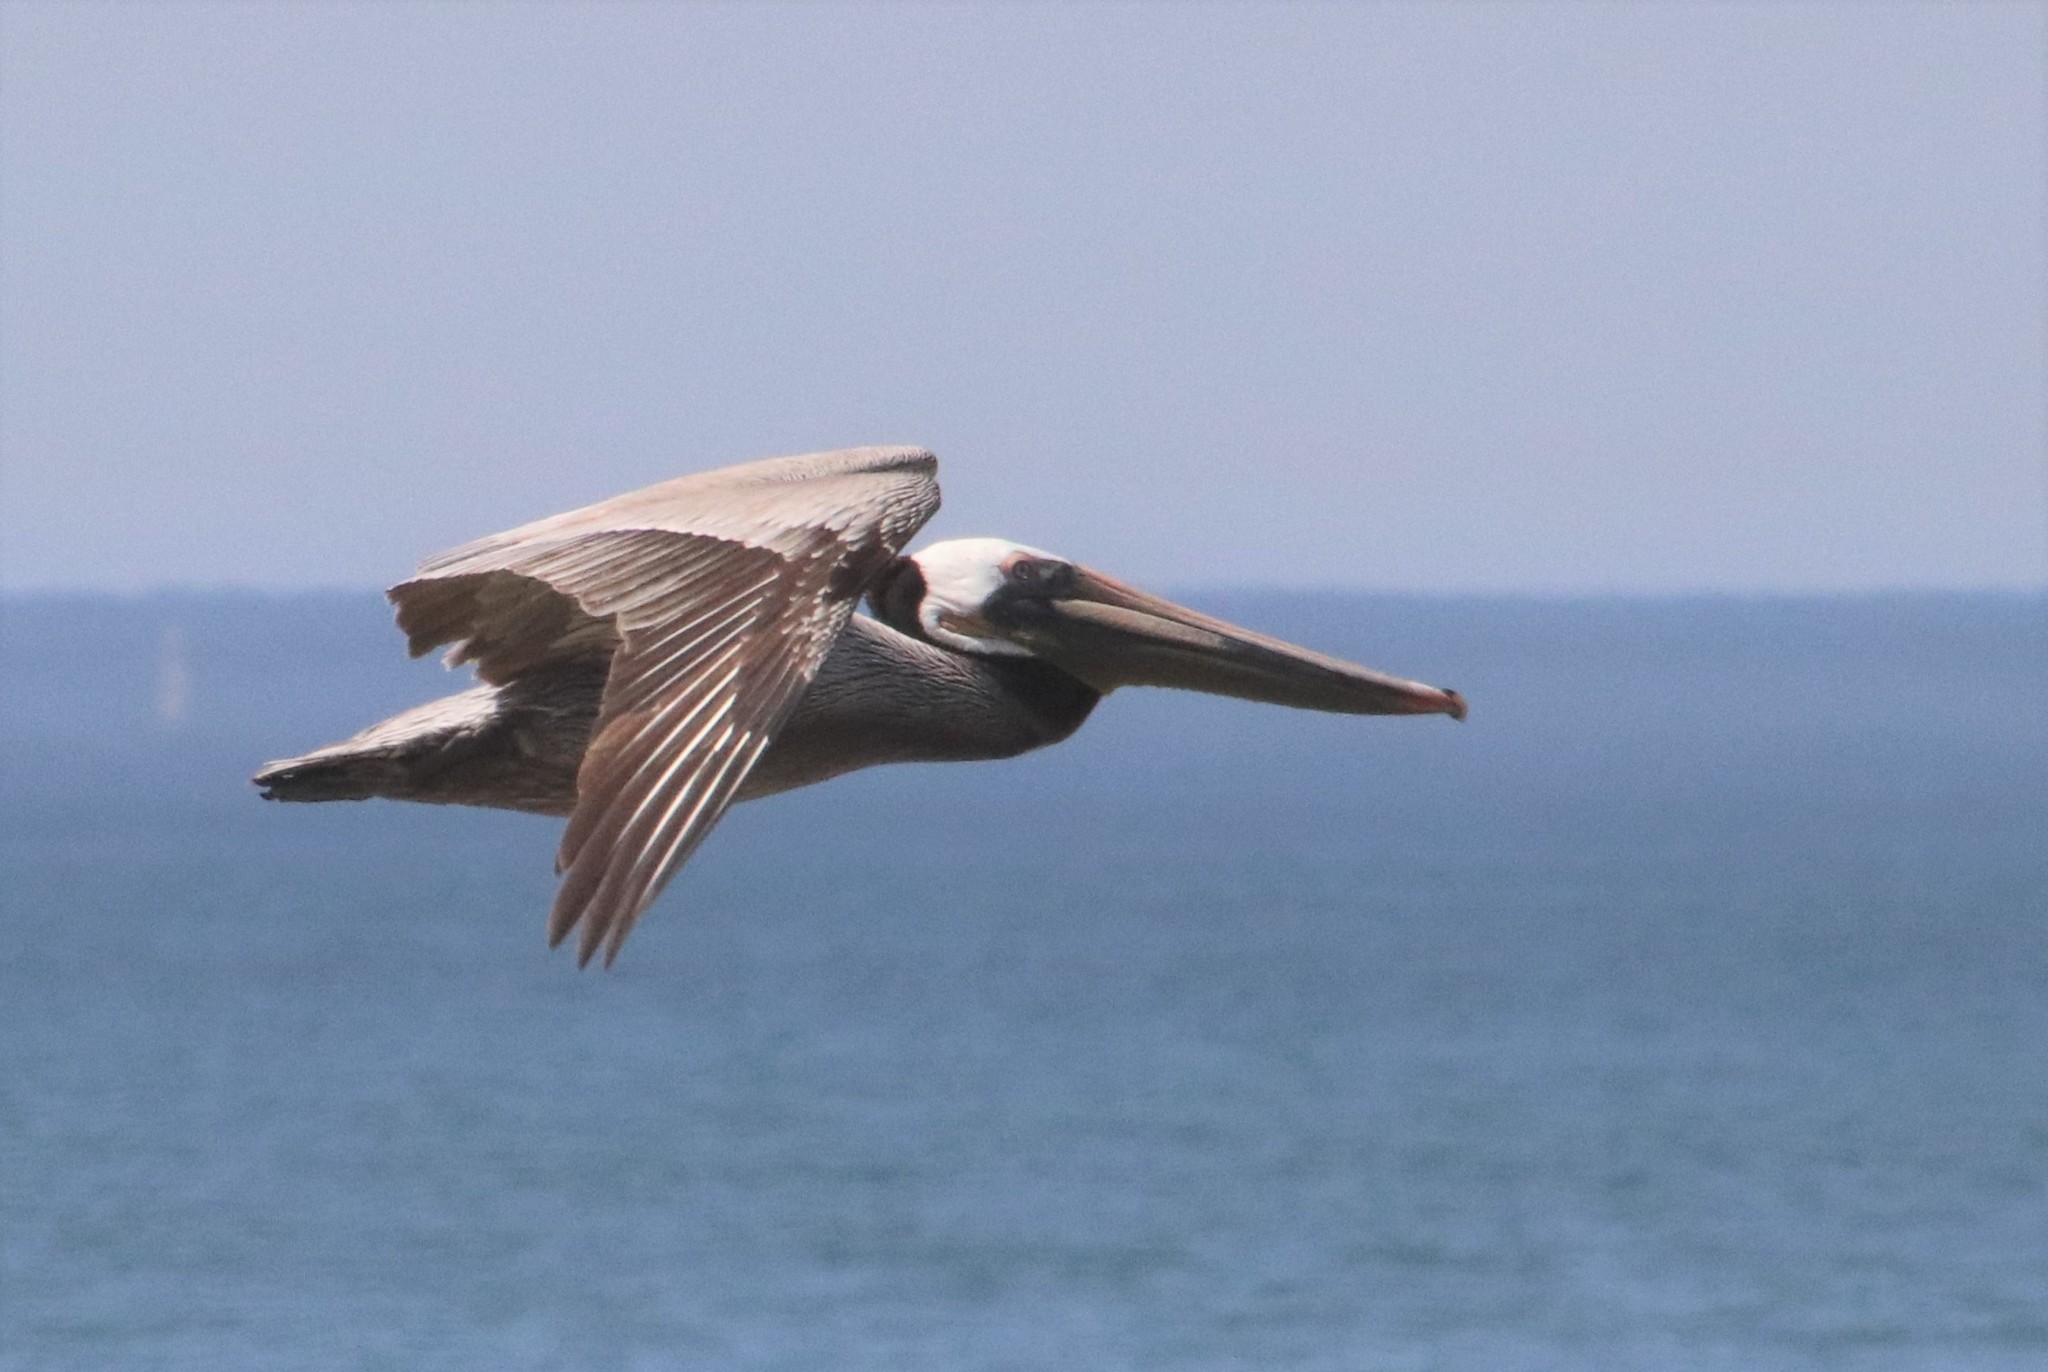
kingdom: Animalia
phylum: Chordata
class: Aves
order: Pelecaniformes
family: Pelecanidae
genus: Pelecanus
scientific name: Pelecanus occidentalis
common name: Brown pelican
